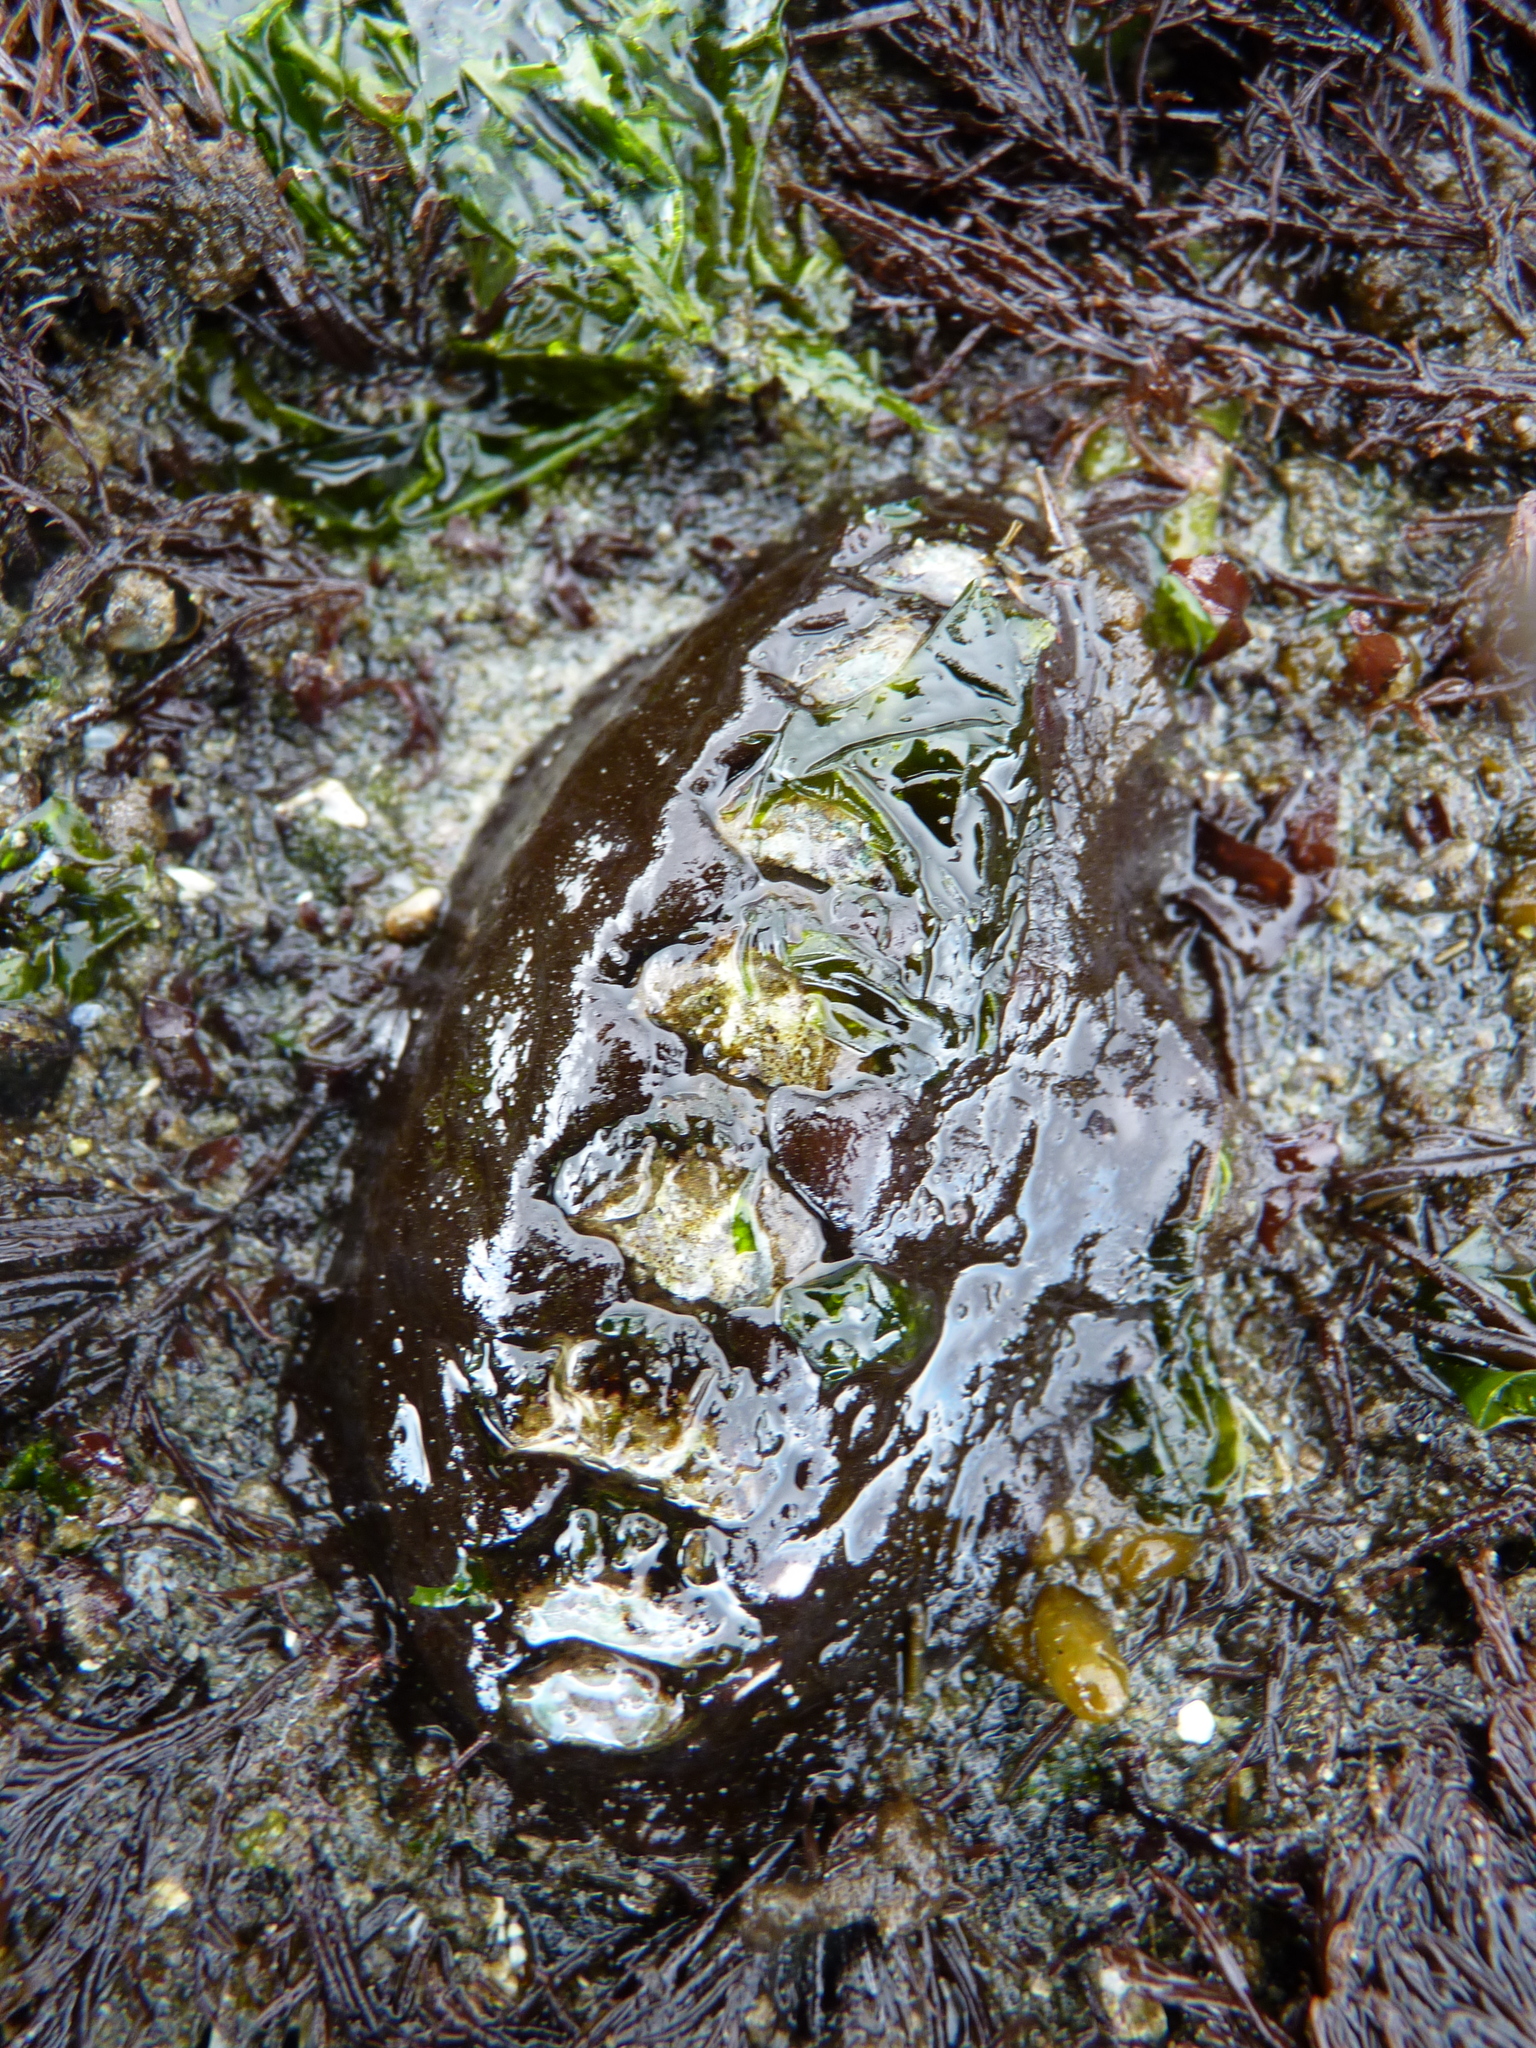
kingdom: Animalia
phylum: Mollusca
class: Polyplacophora
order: Chitonida
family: Mopaliidae
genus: Katharina
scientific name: Katharina tunicata
